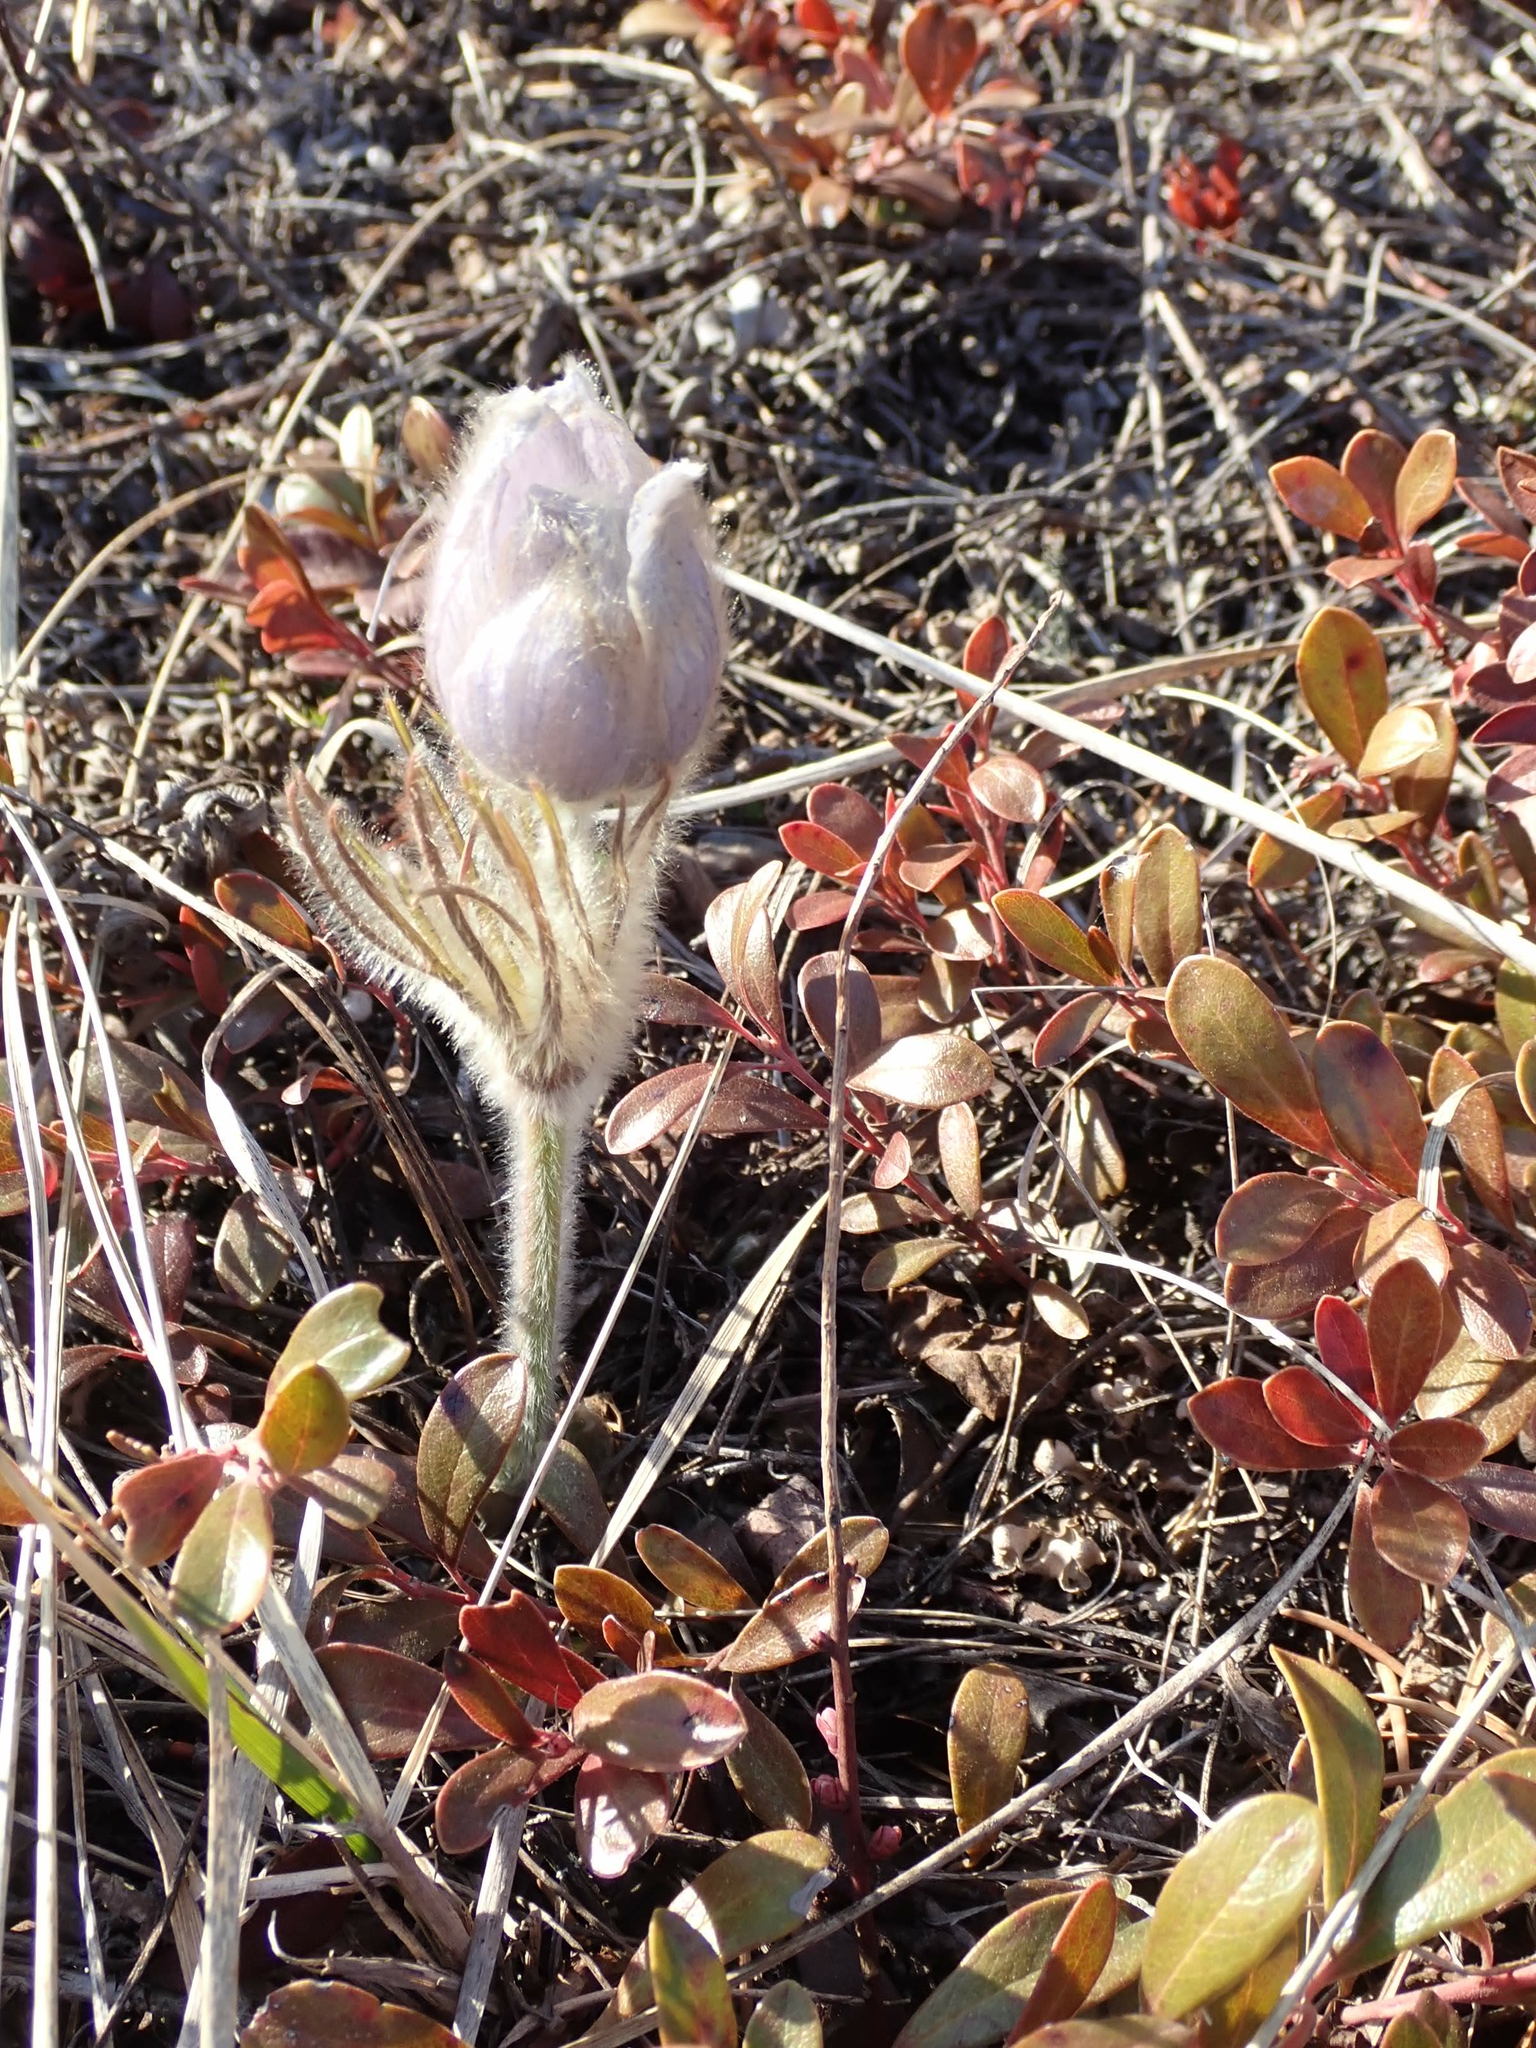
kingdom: Plantae
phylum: Tracheophyta
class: Magnoliopsida
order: Ranunculales
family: Ranunculaceae
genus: Pulsatilla
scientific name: Pulsatilla nuttalliana
